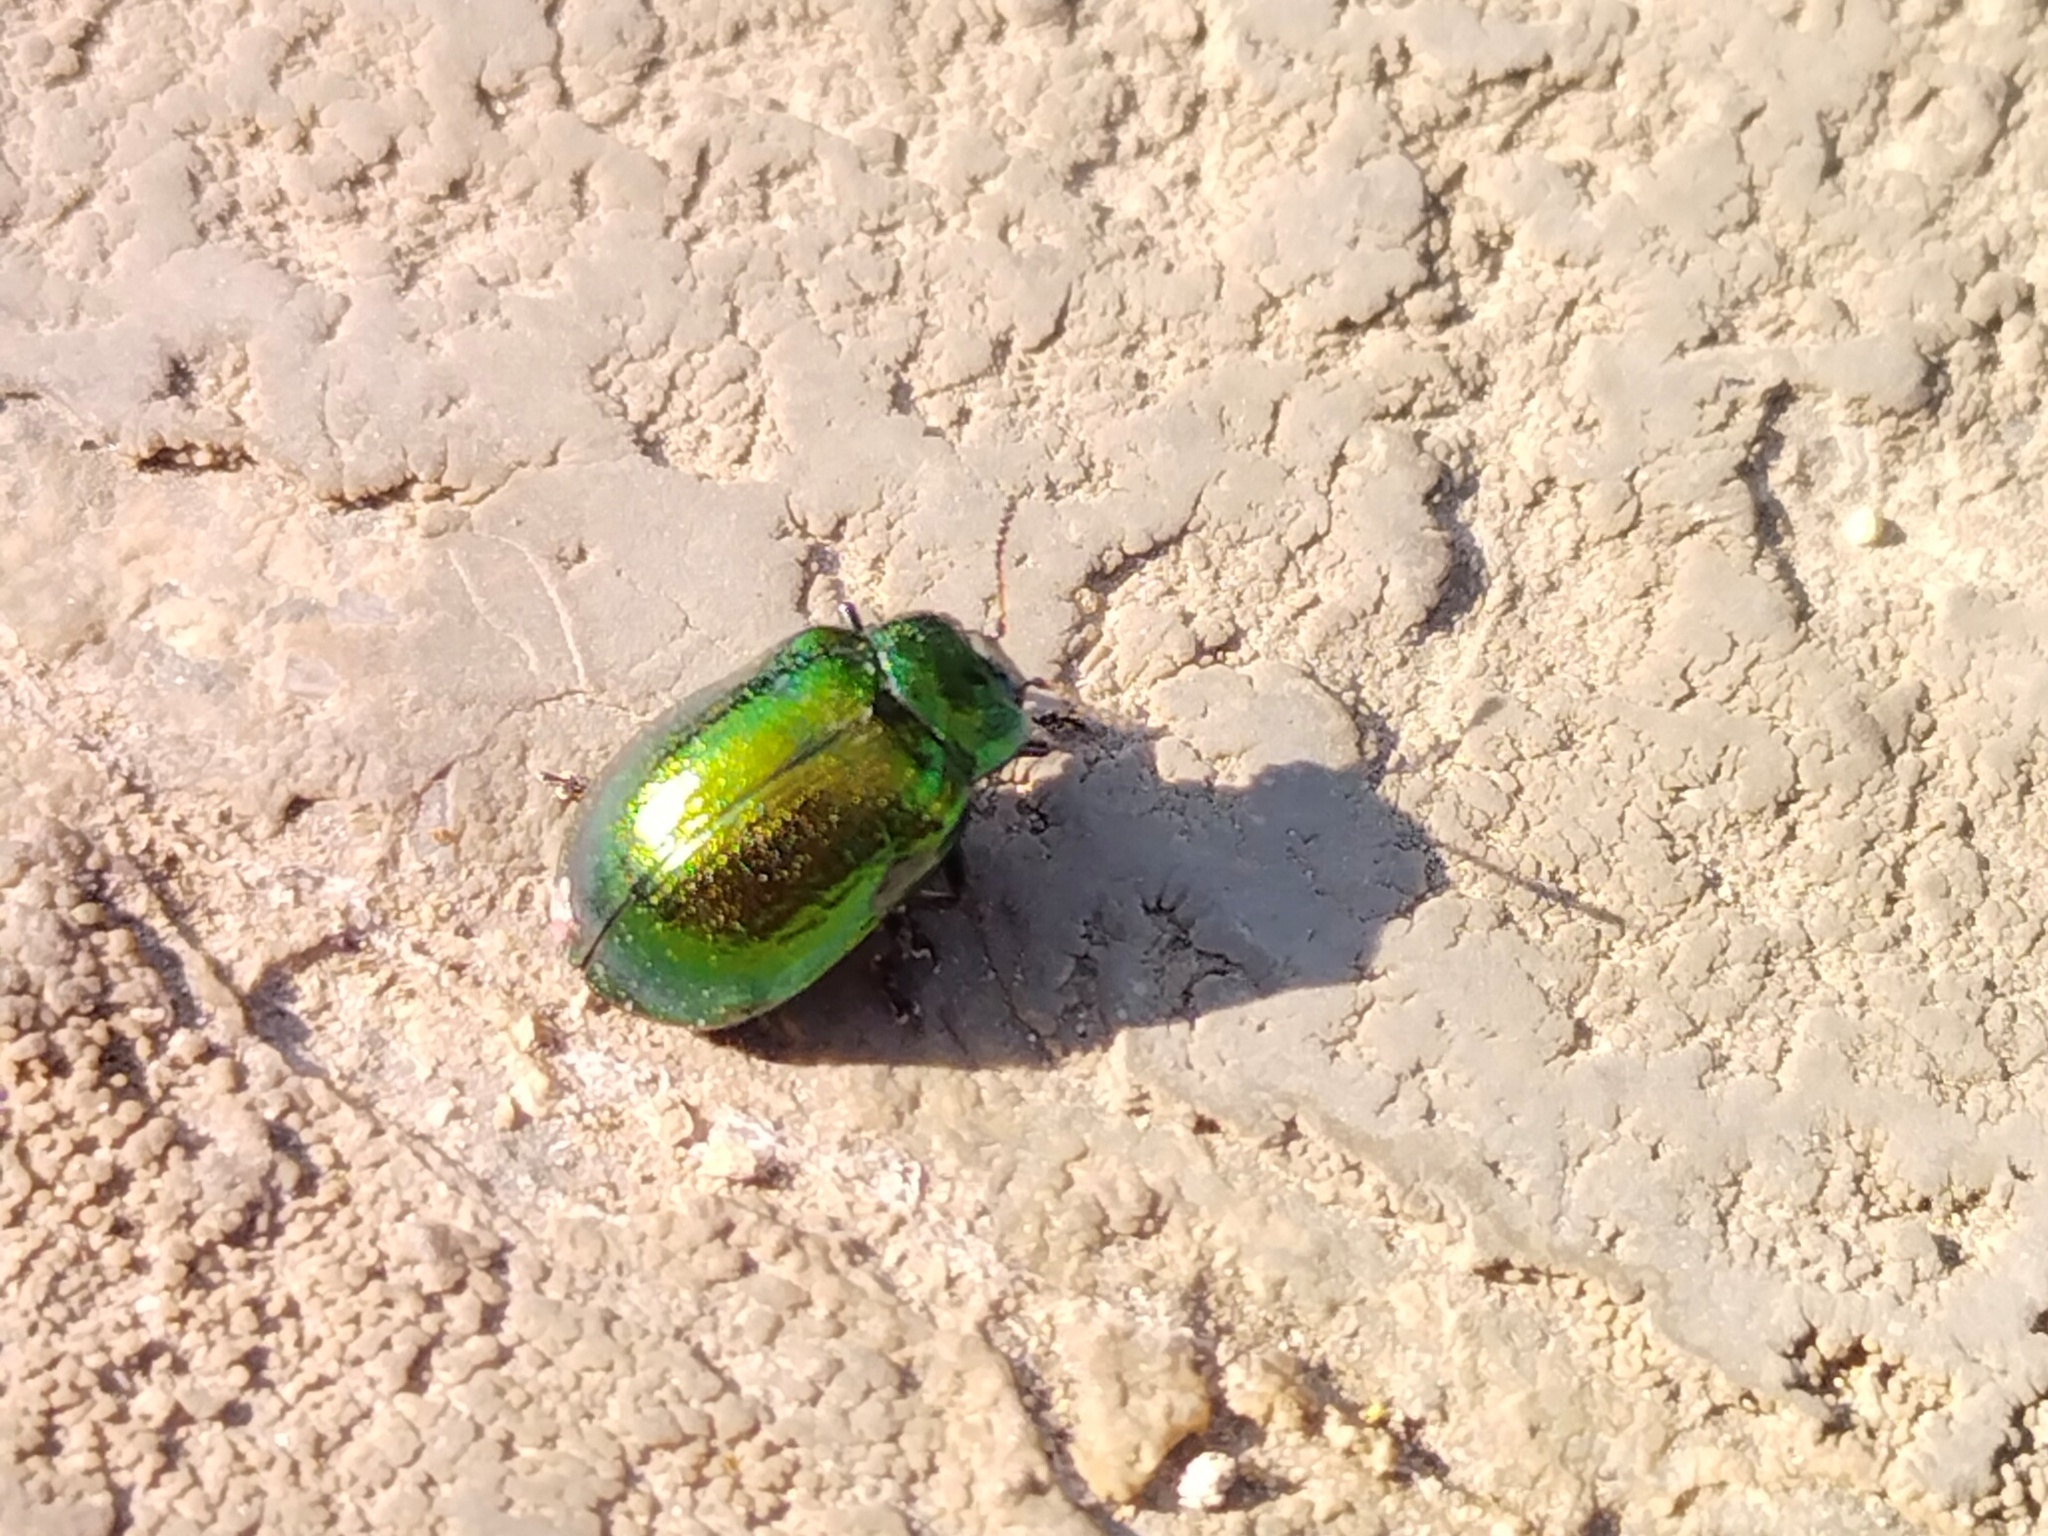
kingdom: Animalia
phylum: Arthropoda
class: Insecta
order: Coleoptera
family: Chrysomelidae
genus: Plagiosterna
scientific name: Plagiosterna aenea
